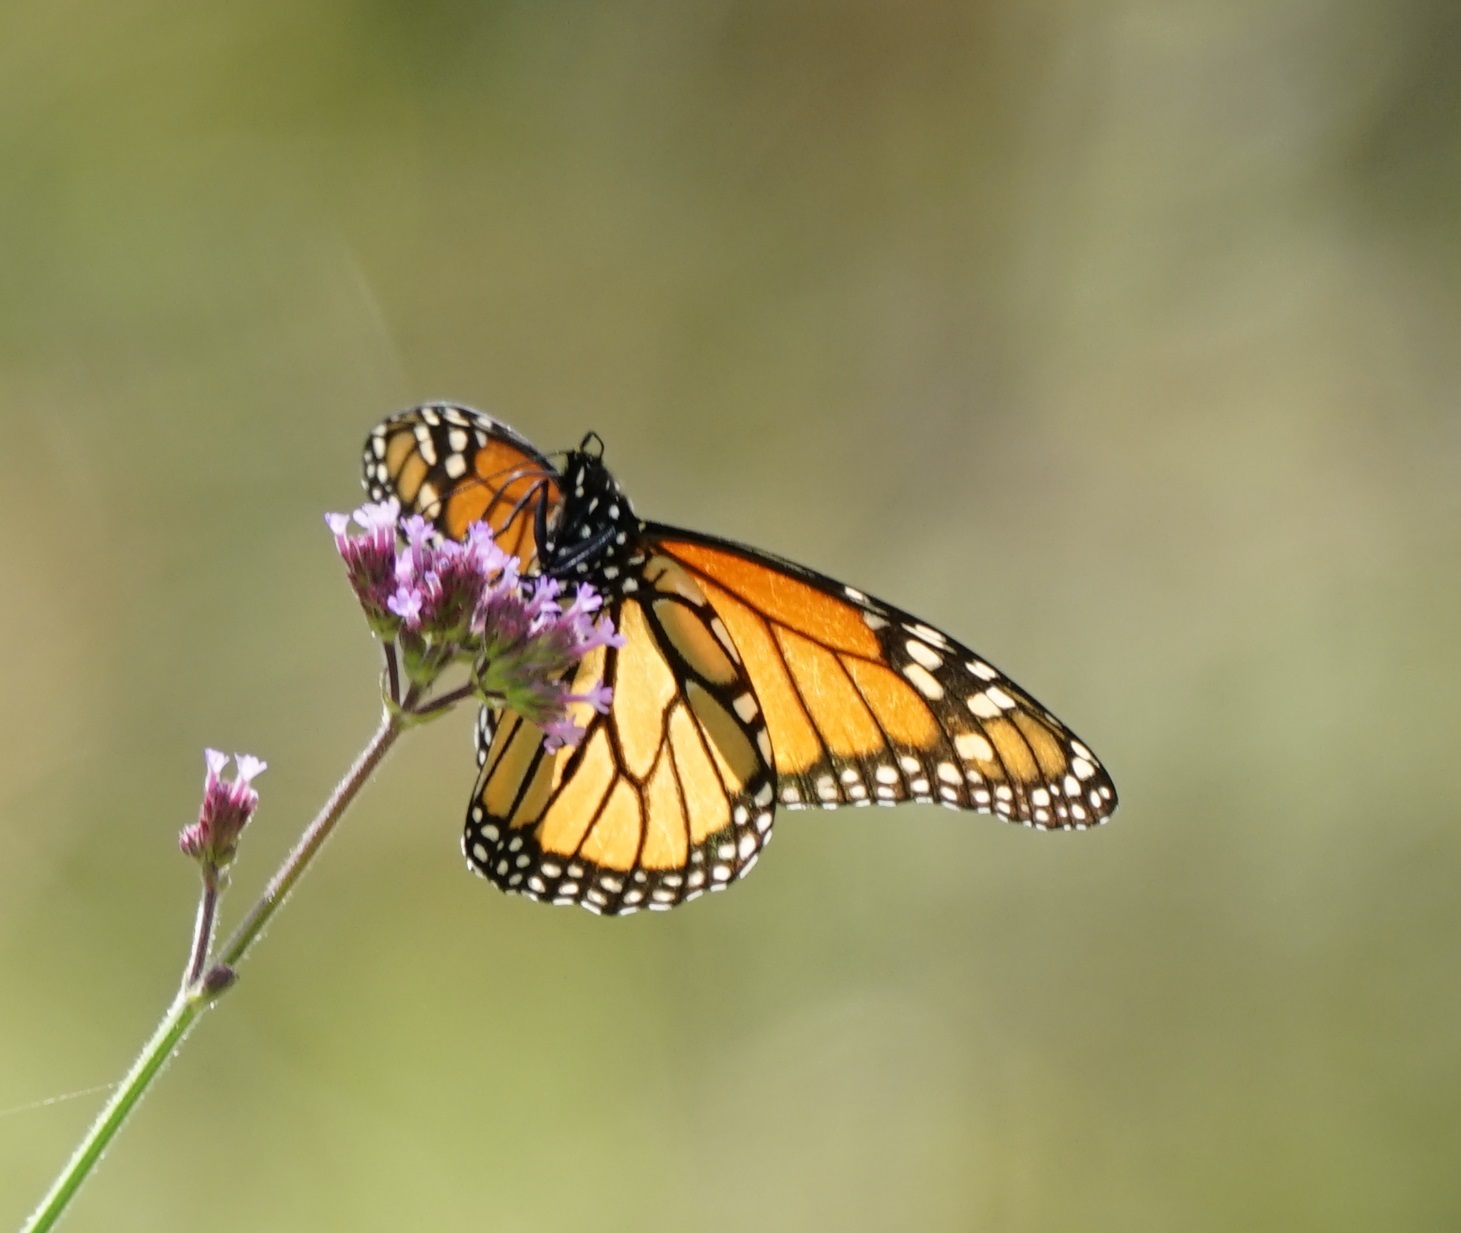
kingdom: Animalia
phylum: Arthropoda
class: Insecta
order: Lepidoptera
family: Nymphalidae
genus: Danaus
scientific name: Danaus plexippus
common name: Monarch
